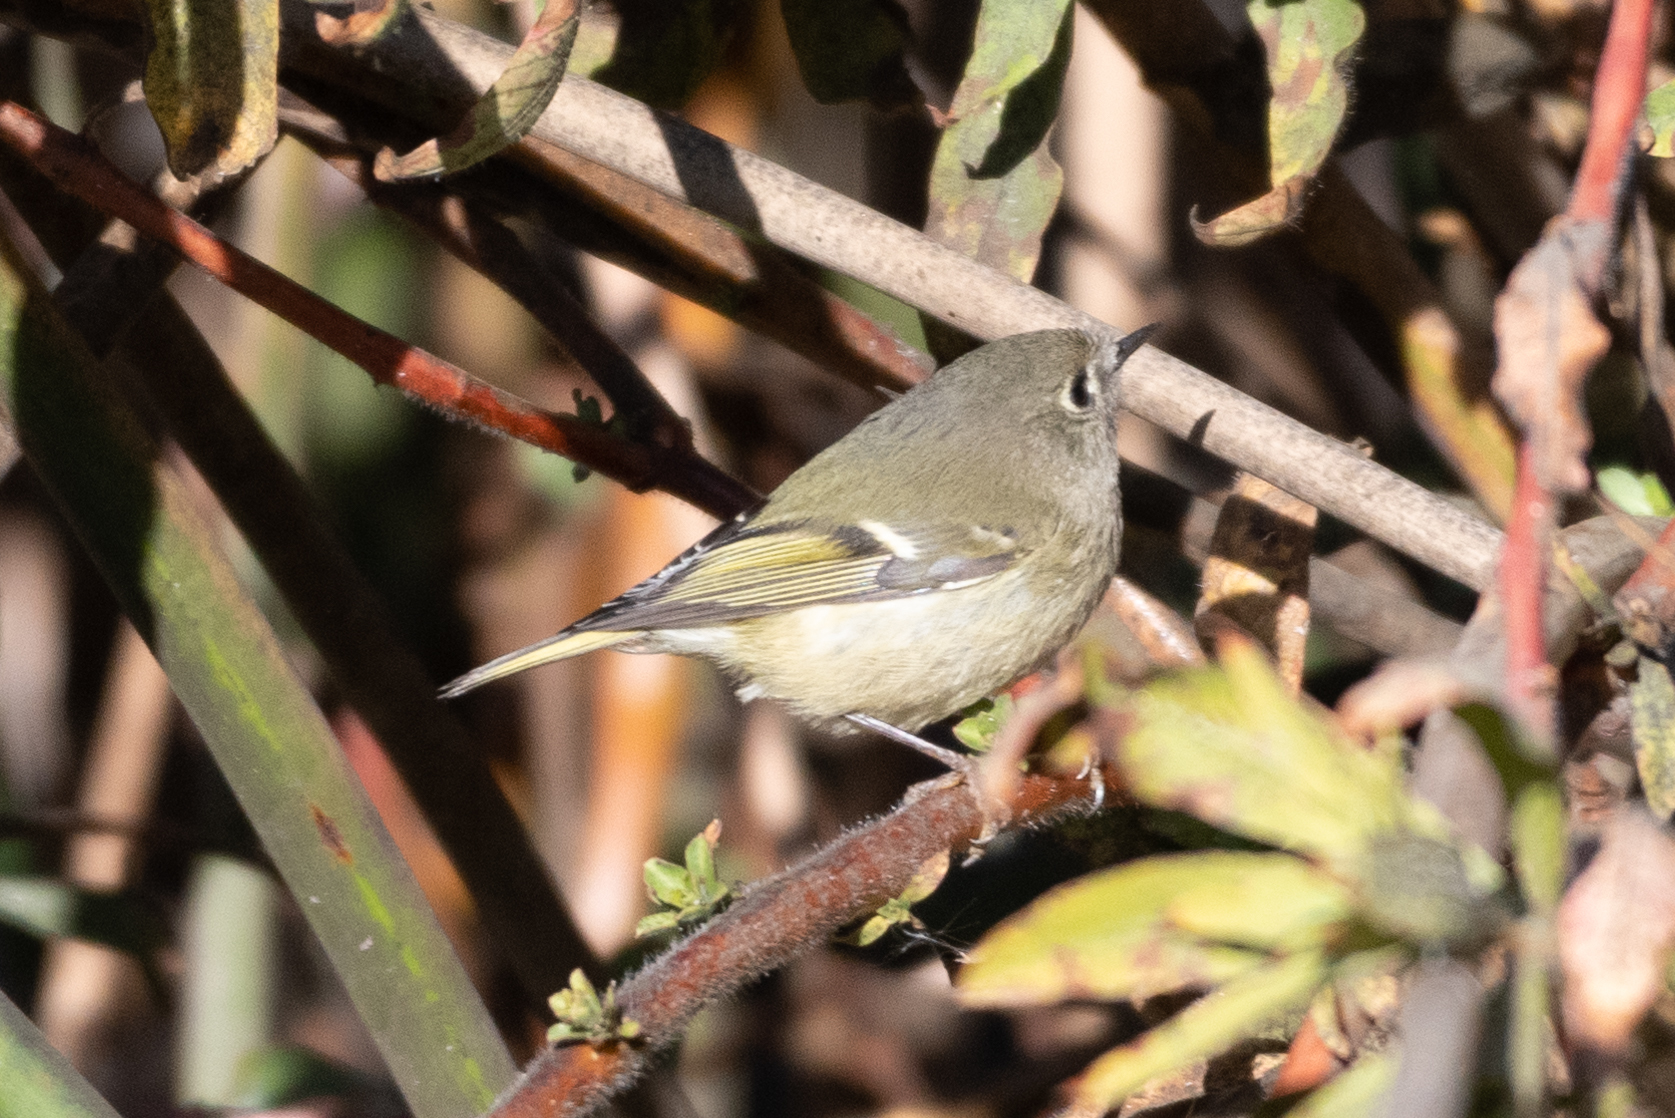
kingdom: Animalia
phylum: Chordata
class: Aves
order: Passeriformes
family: Regulidae
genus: Regulus
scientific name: Regulus calendula
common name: Ruby-crowned kinglet
